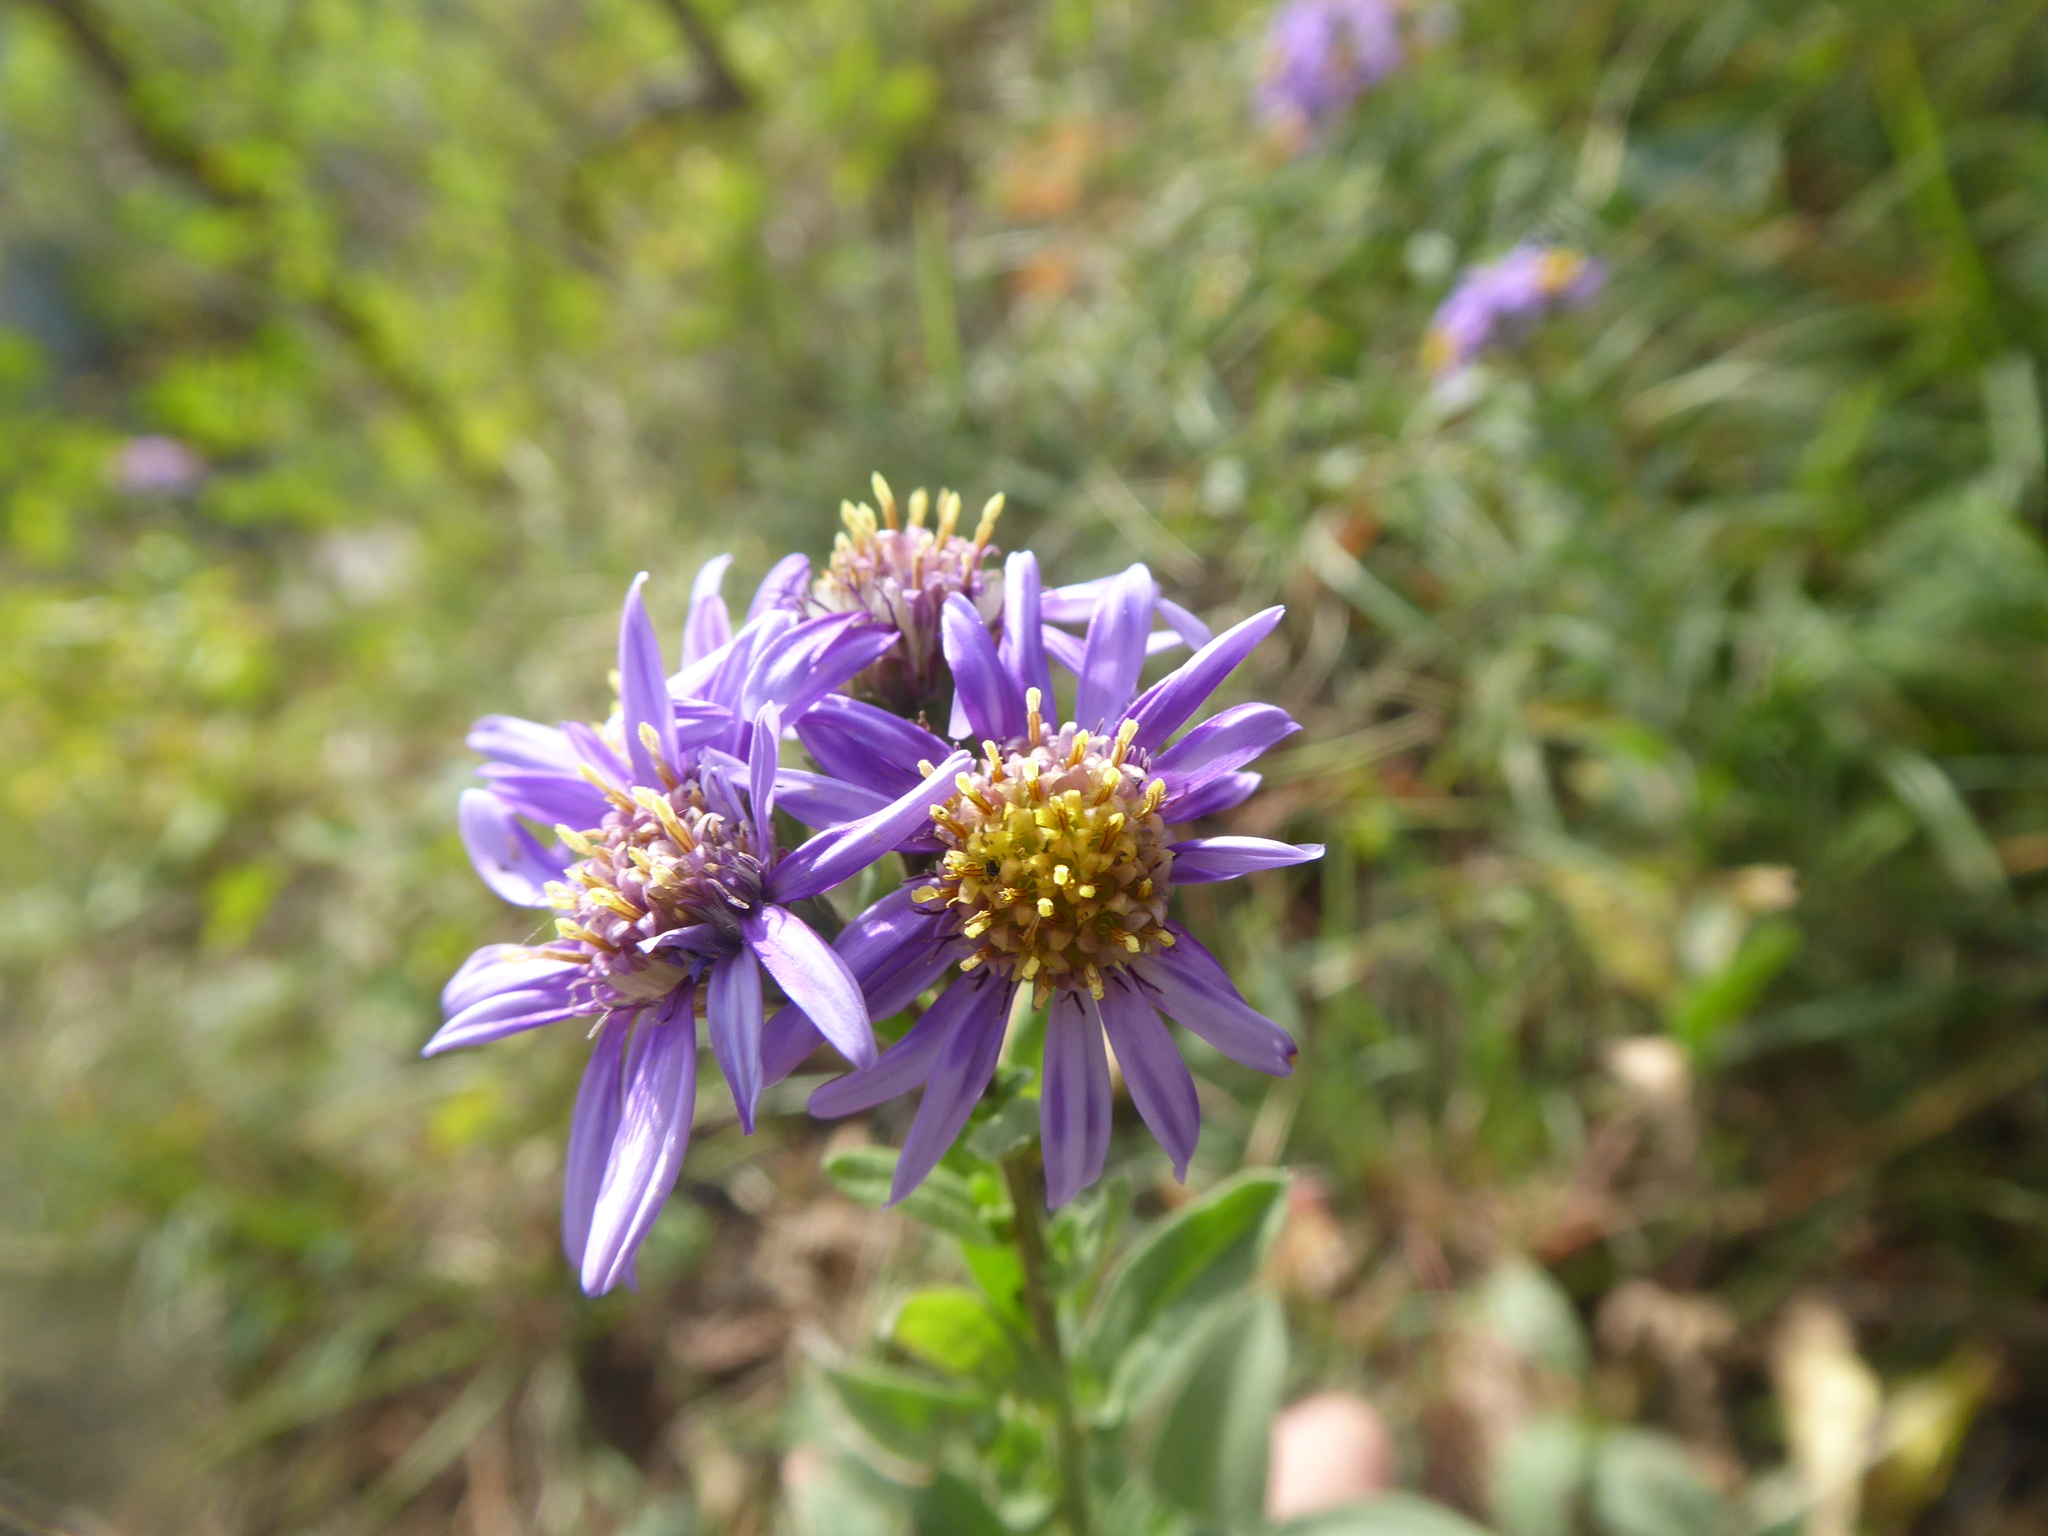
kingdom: Plantae
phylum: Tracheophyta
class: Magnoliopsida
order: Asterales
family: Asteraceae
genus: Aster
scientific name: Aster amellus
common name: European michaelmas daisy
